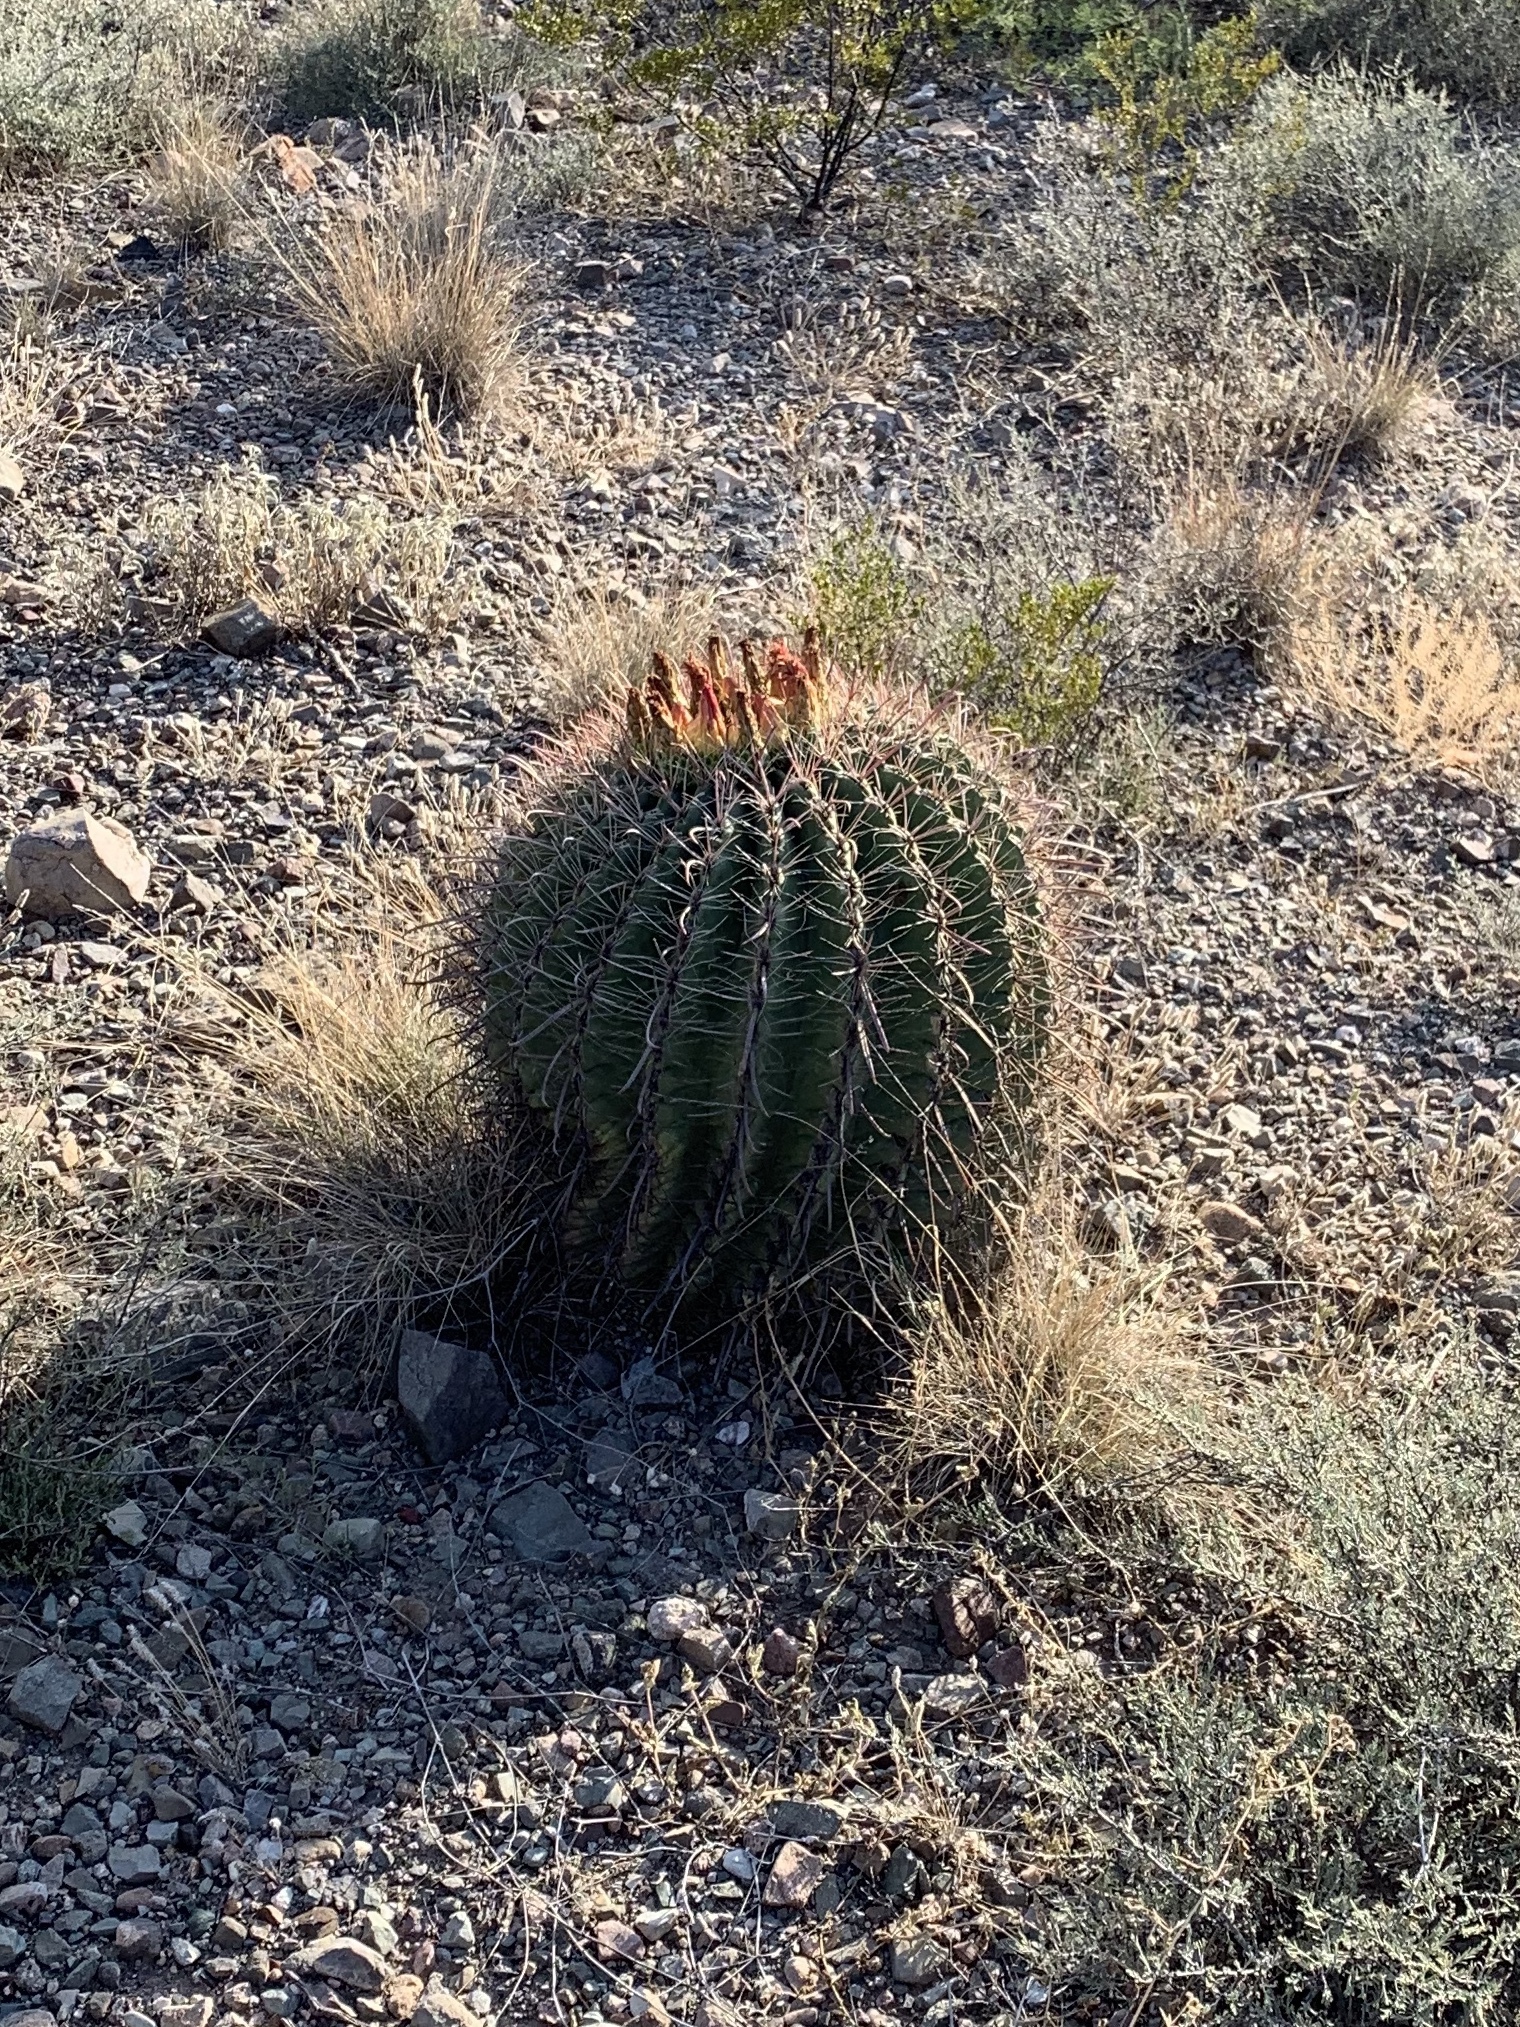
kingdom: Plantae
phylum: Tracheophyta
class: Magnoliopsida
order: Caryophyllales
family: Cactaceae
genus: Ferocactus
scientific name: Ferocactus wislizeni
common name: Candy barrel cactus
